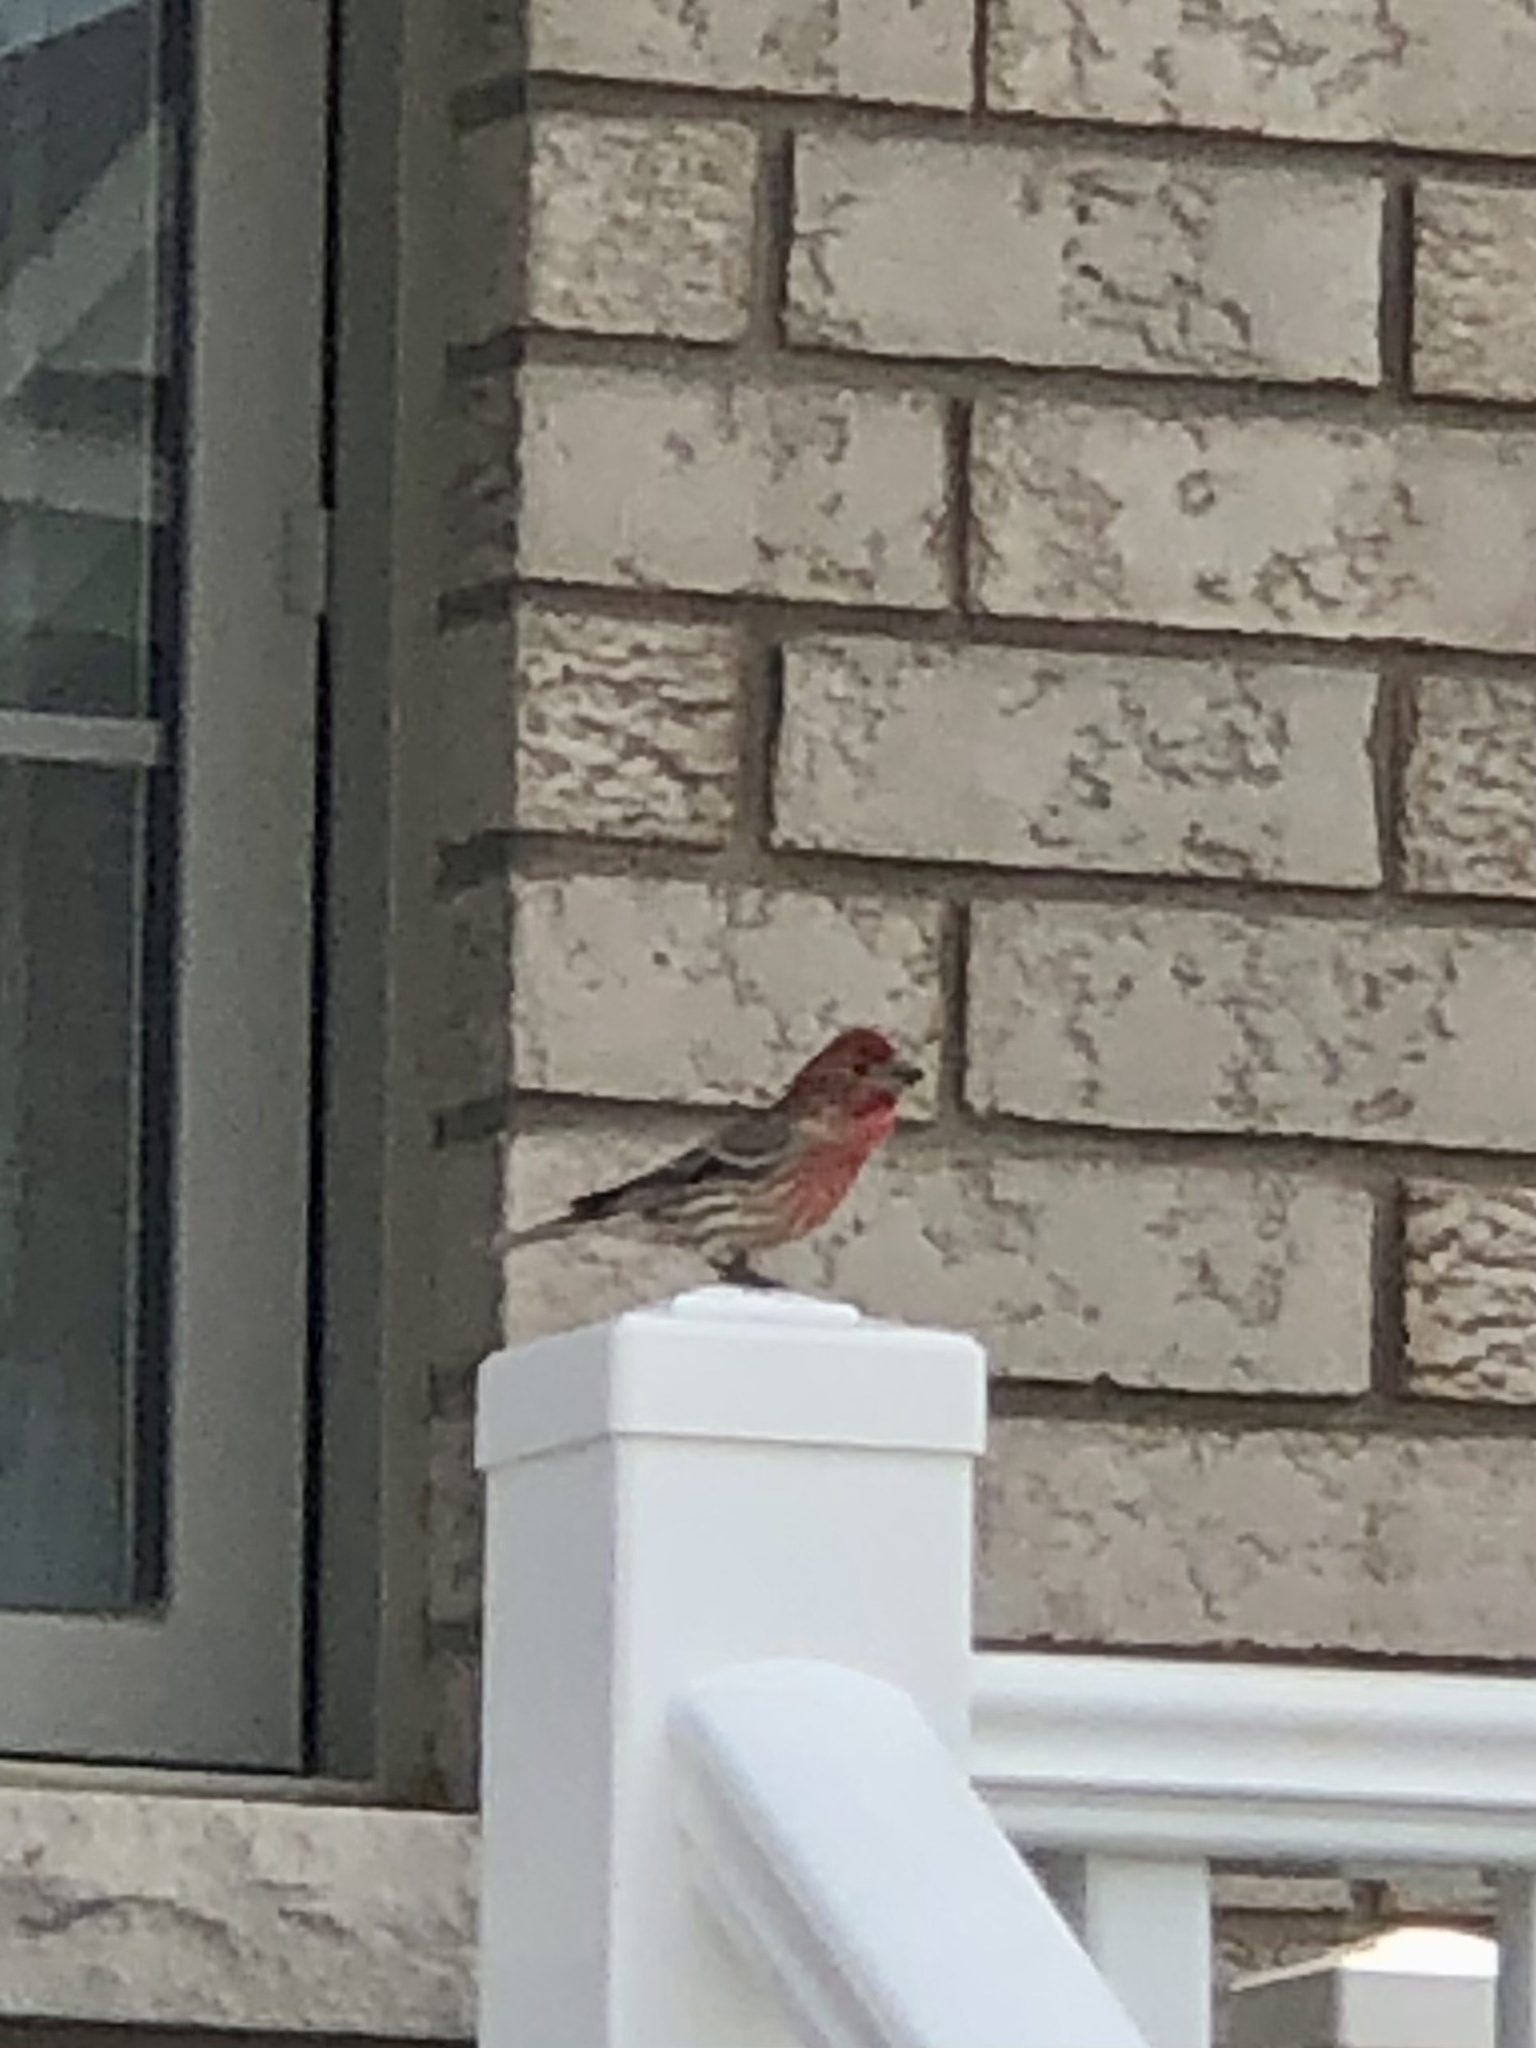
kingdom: Animalia
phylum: Chordata
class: Aves
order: Passeriformes
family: Fringillidae
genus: Haemorhous
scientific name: Haemorhous mexicanus
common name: House finch
